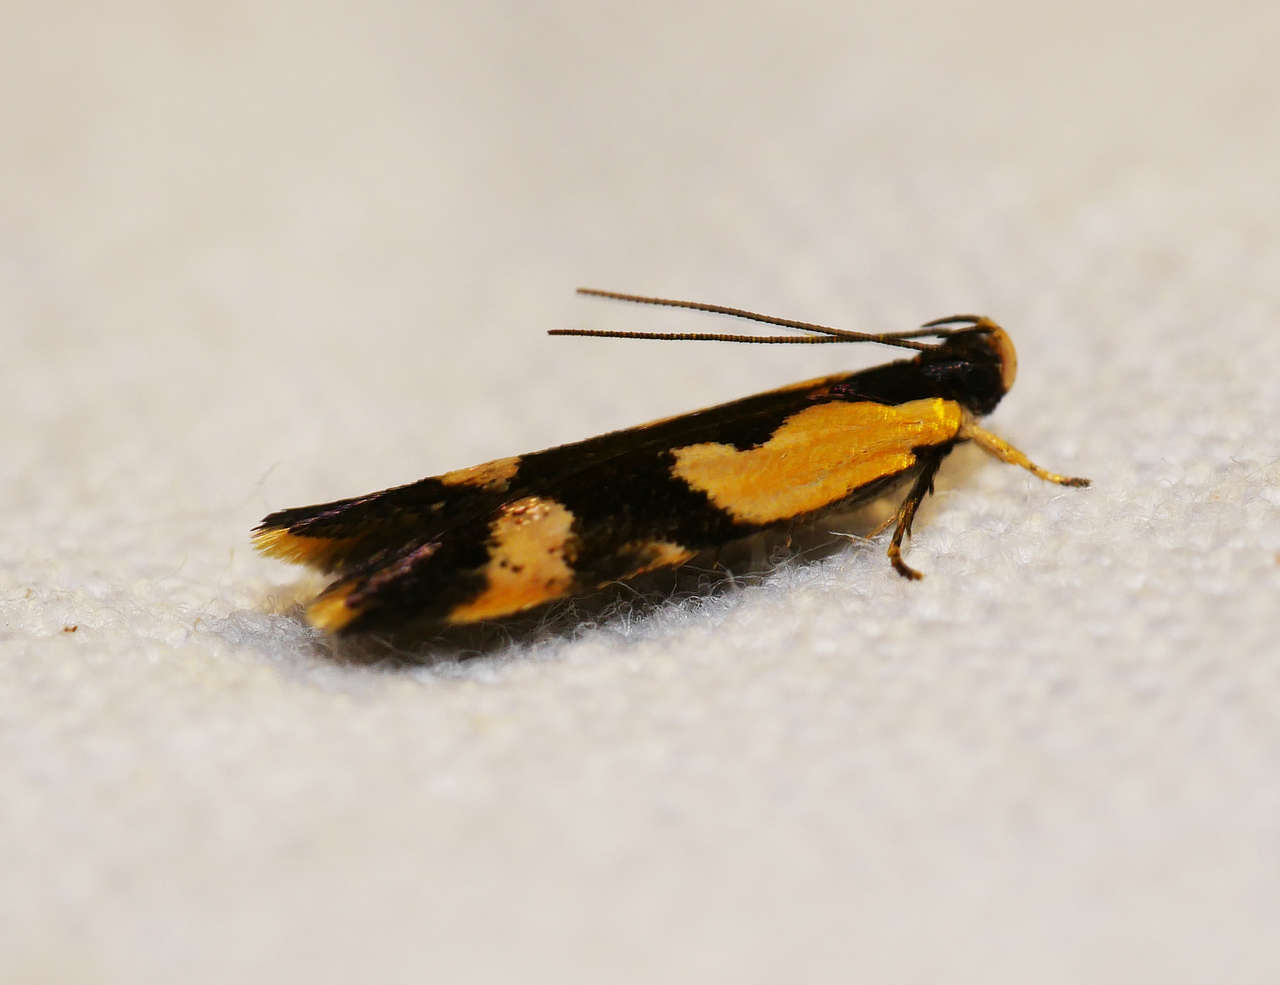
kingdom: Animalia
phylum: Arthropoda
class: Insecta
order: Lepidoptera
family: Gelechiidae
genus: Ardozyga
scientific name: Ardozyga telopis
